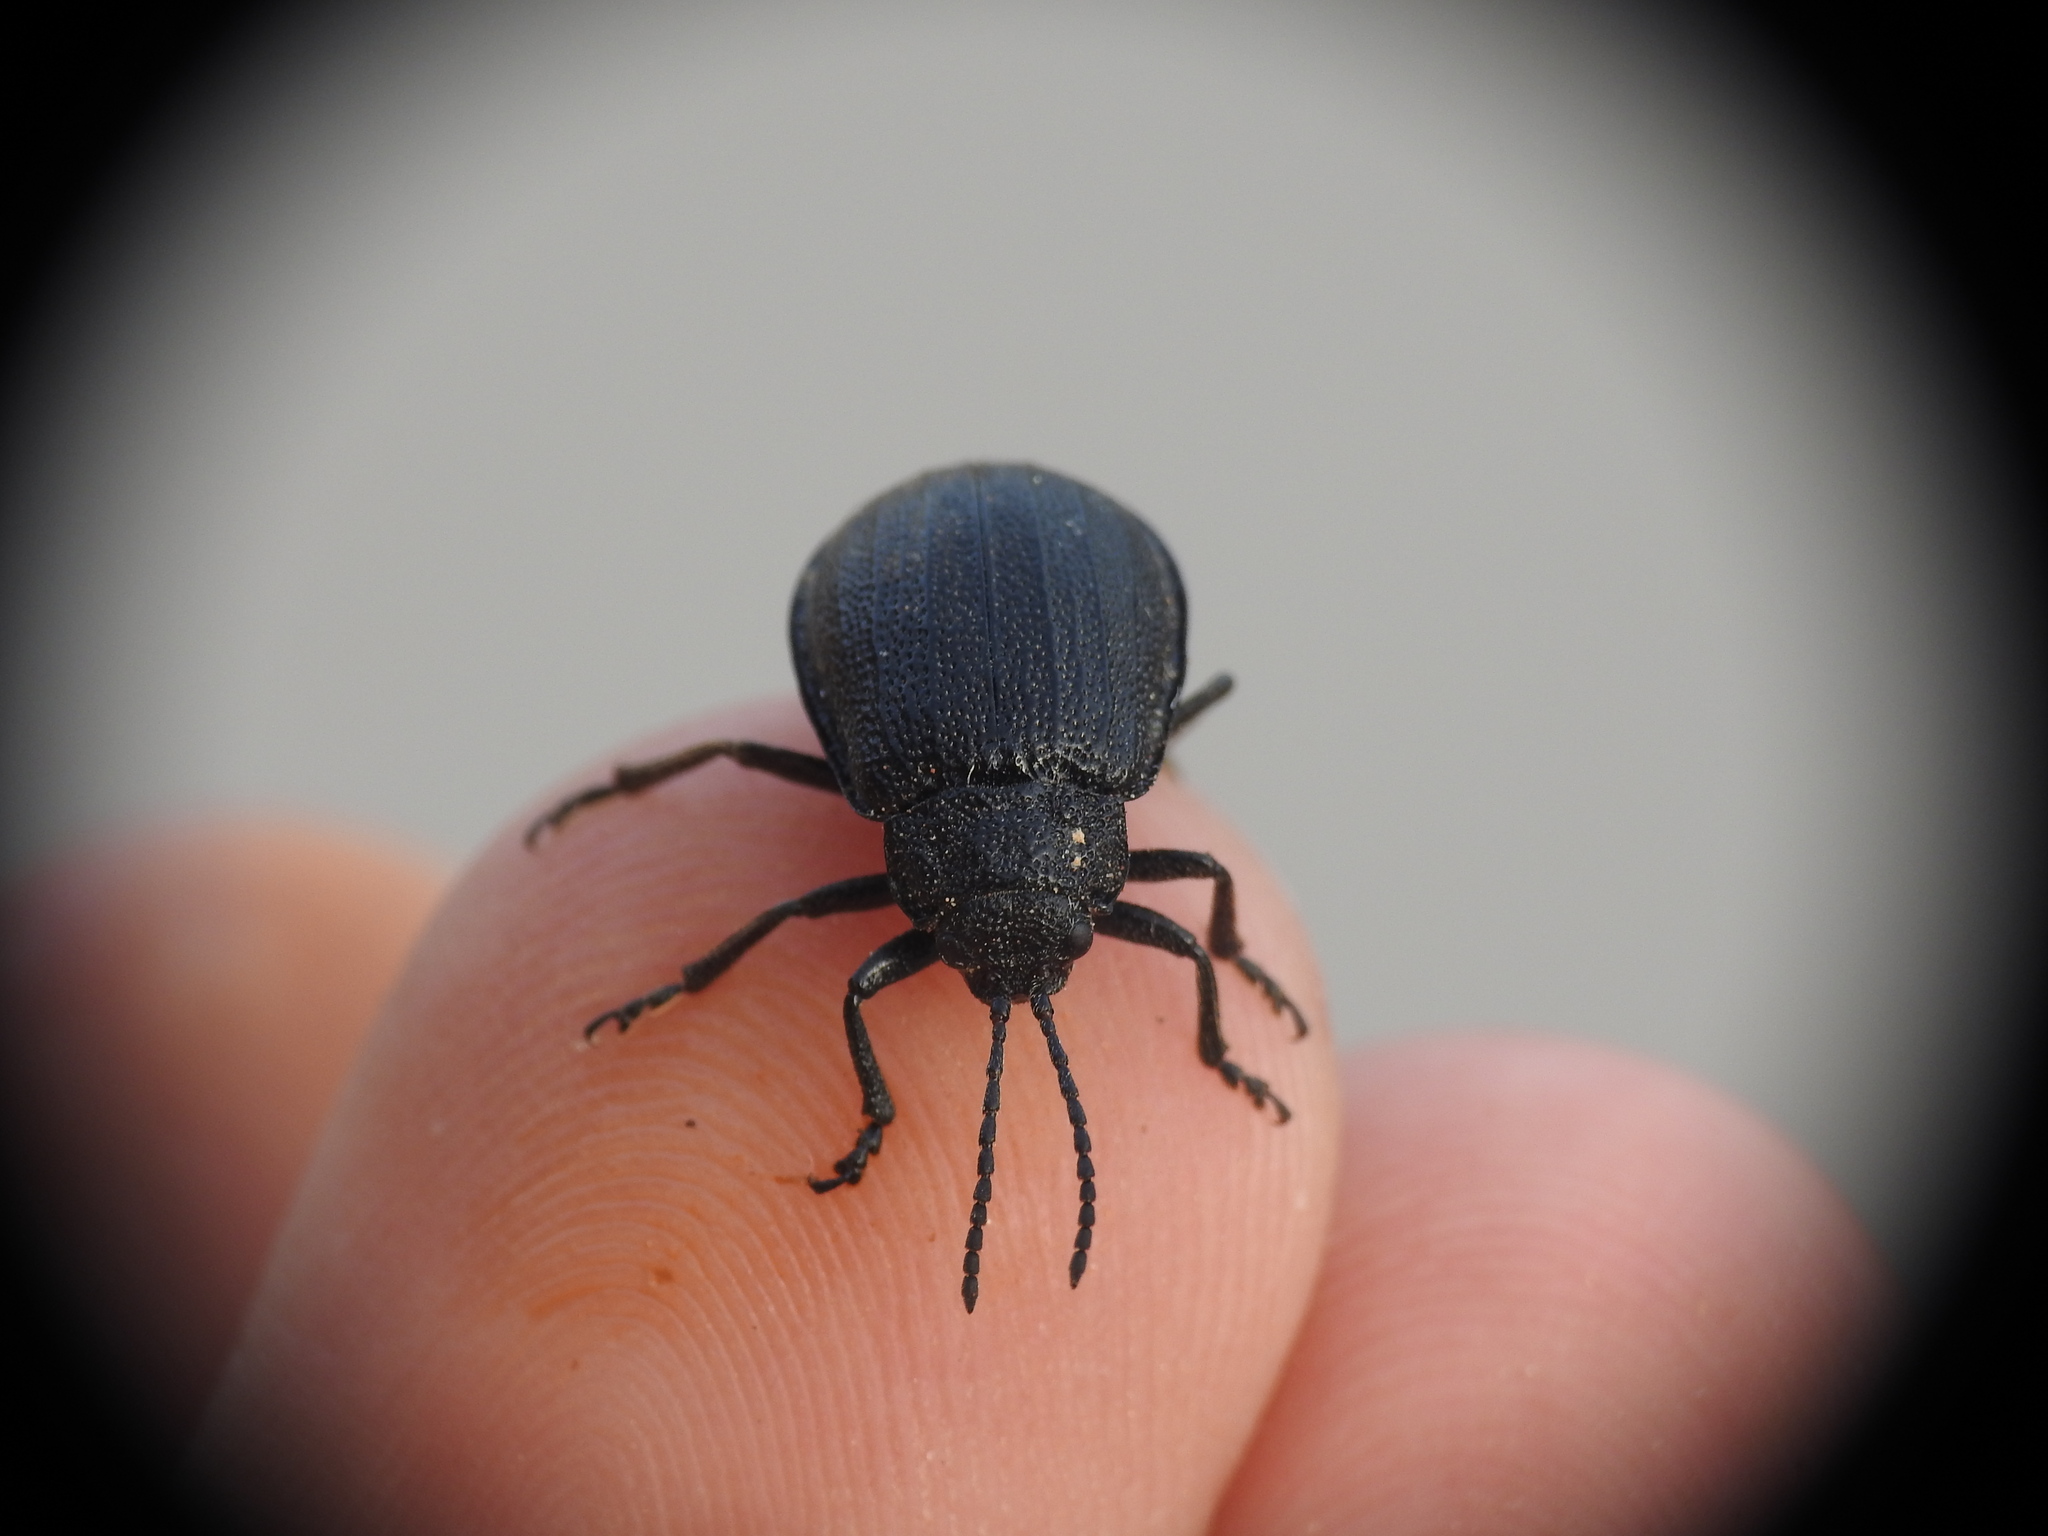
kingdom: Animalia
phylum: Arthropoda
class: Insecta
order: Coleoptera
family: Chrysomelidae
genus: Galeruca
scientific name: Galeruca ida
